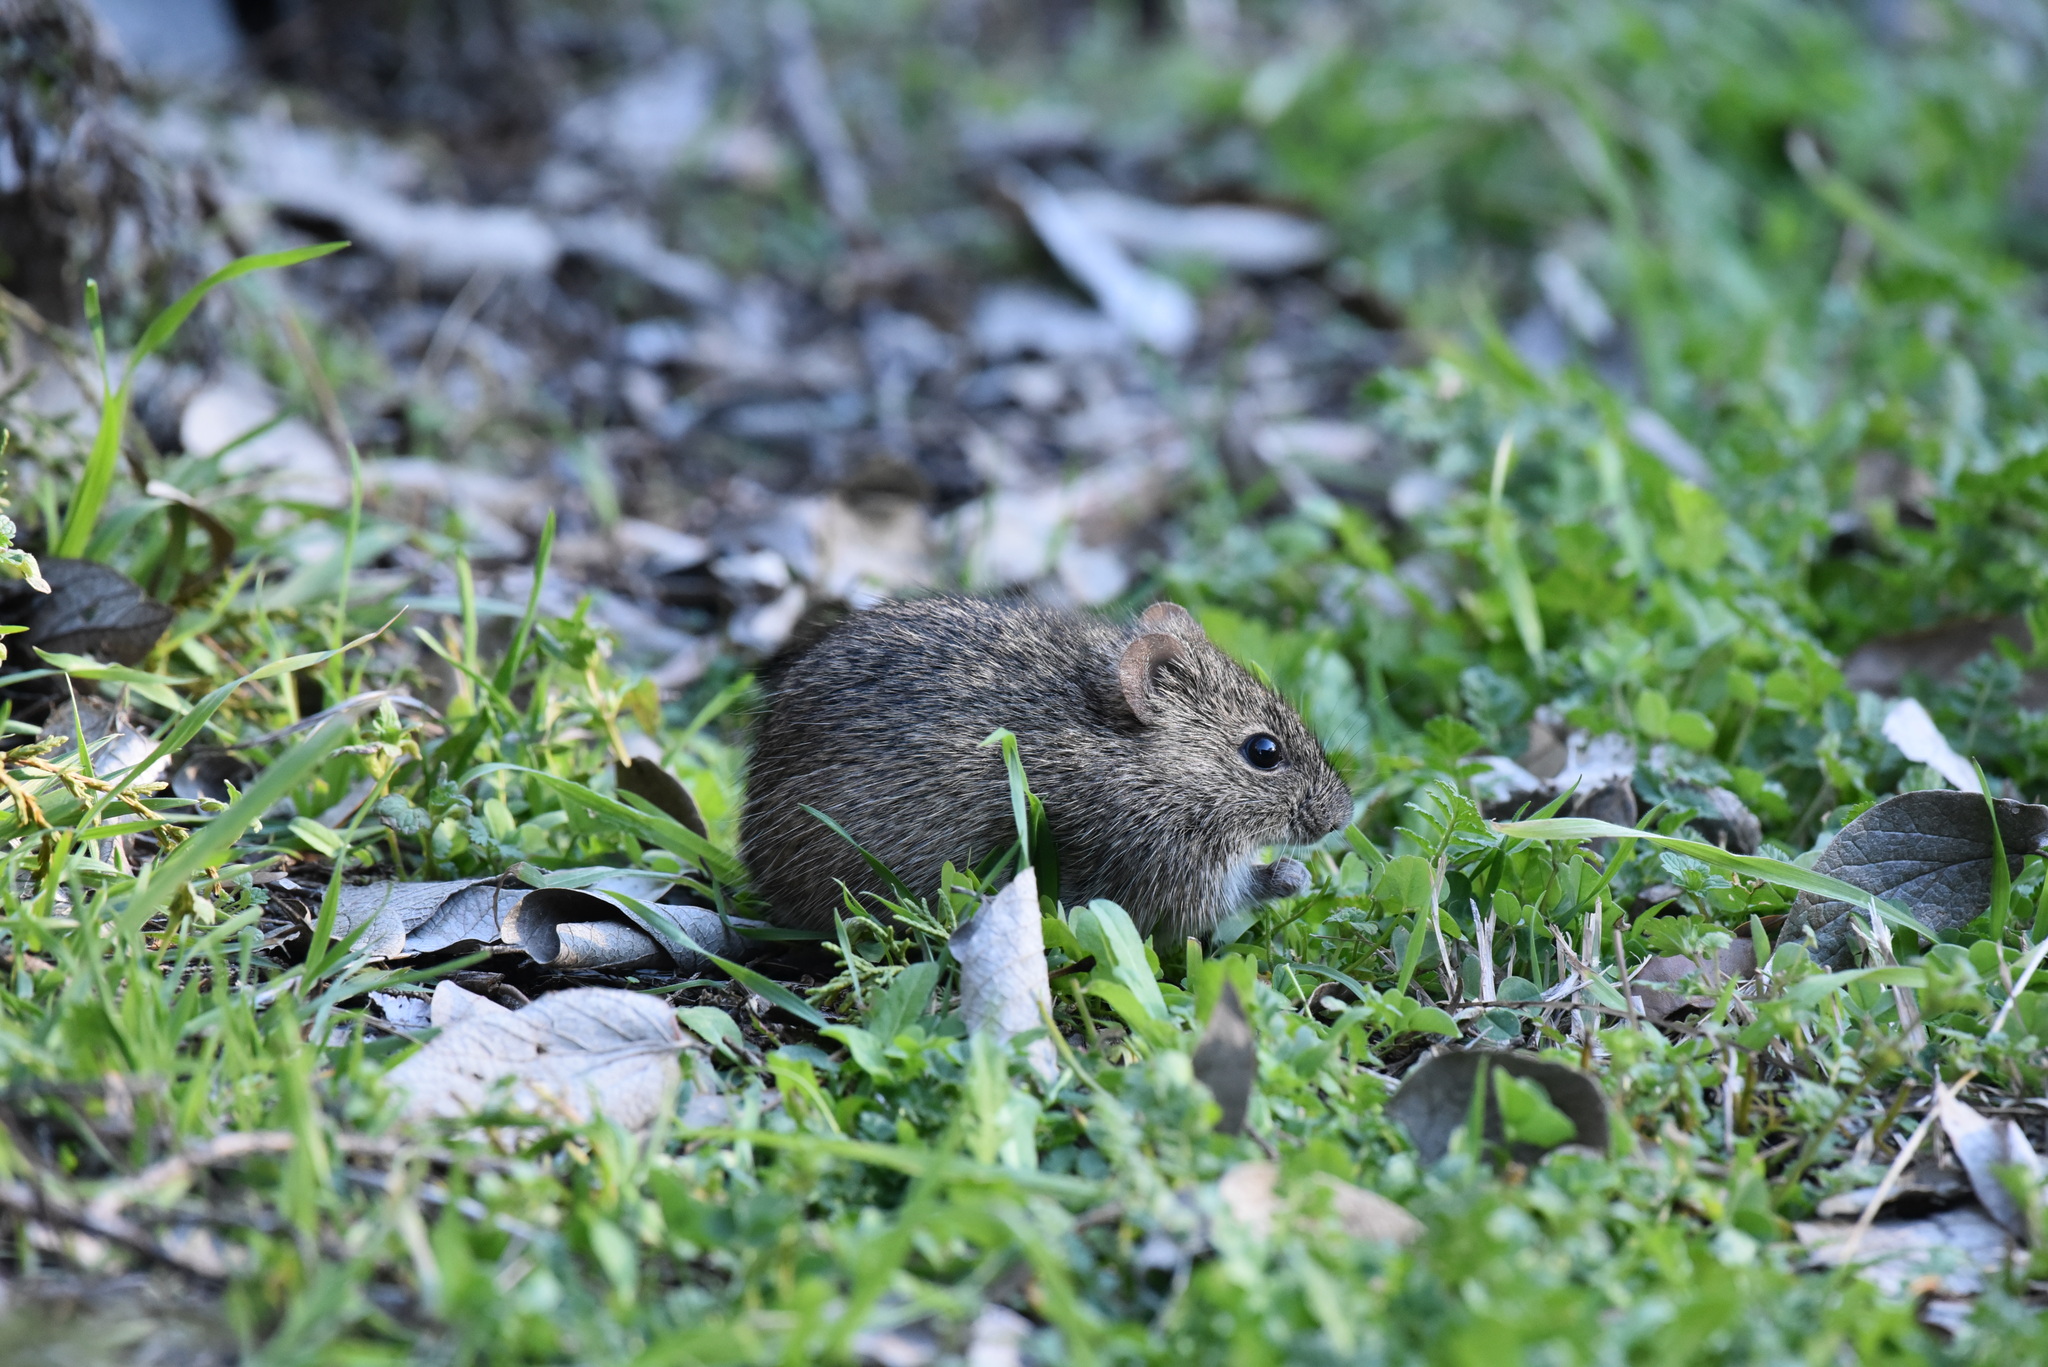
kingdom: Animalia
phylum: Chordata
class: Mammalia
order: Rodentia
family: Cricetidae
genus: Sigmodon
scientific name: Sigmodon hispidus
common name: Hispid cotton rat
